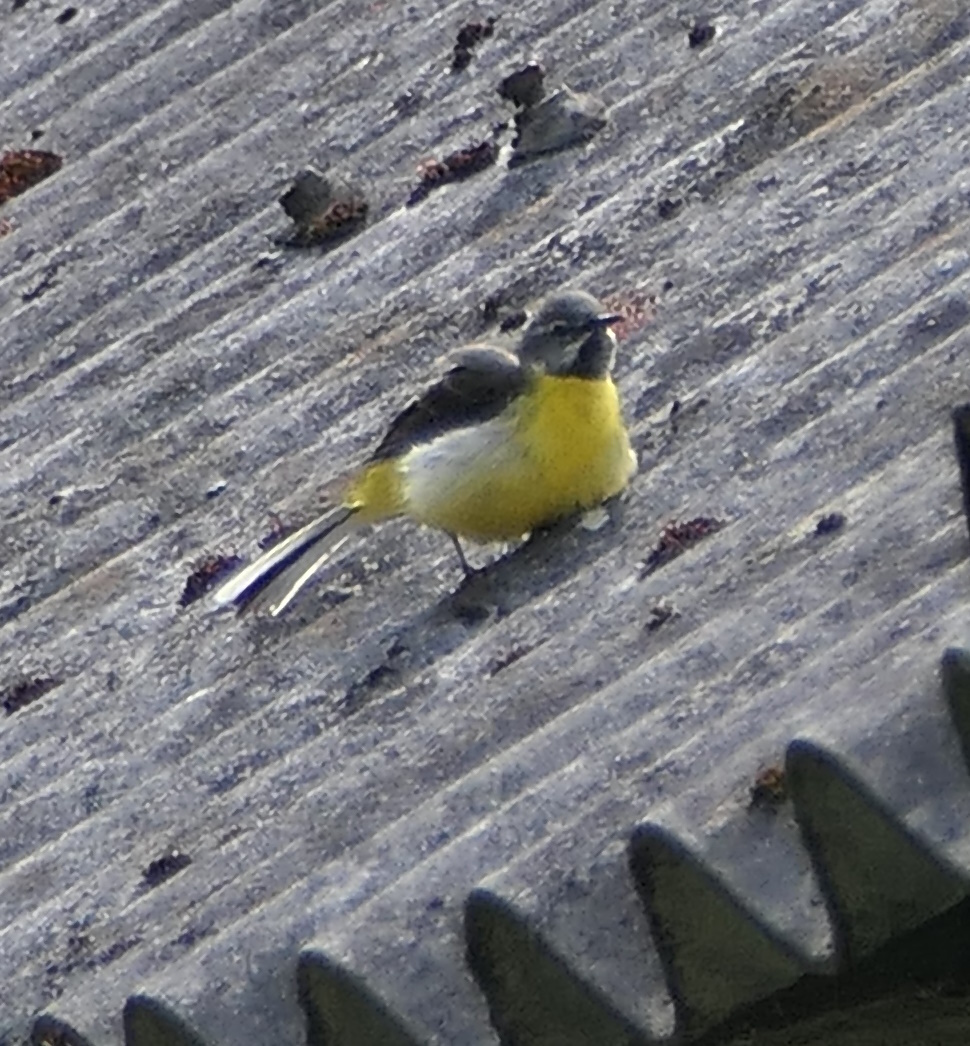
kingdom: Animalia
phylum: Chordata
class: Aves
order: Passeriformes
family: Motacillidae
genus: Motacilla
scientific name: Motacilla cinerea
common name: Grey wagtail
